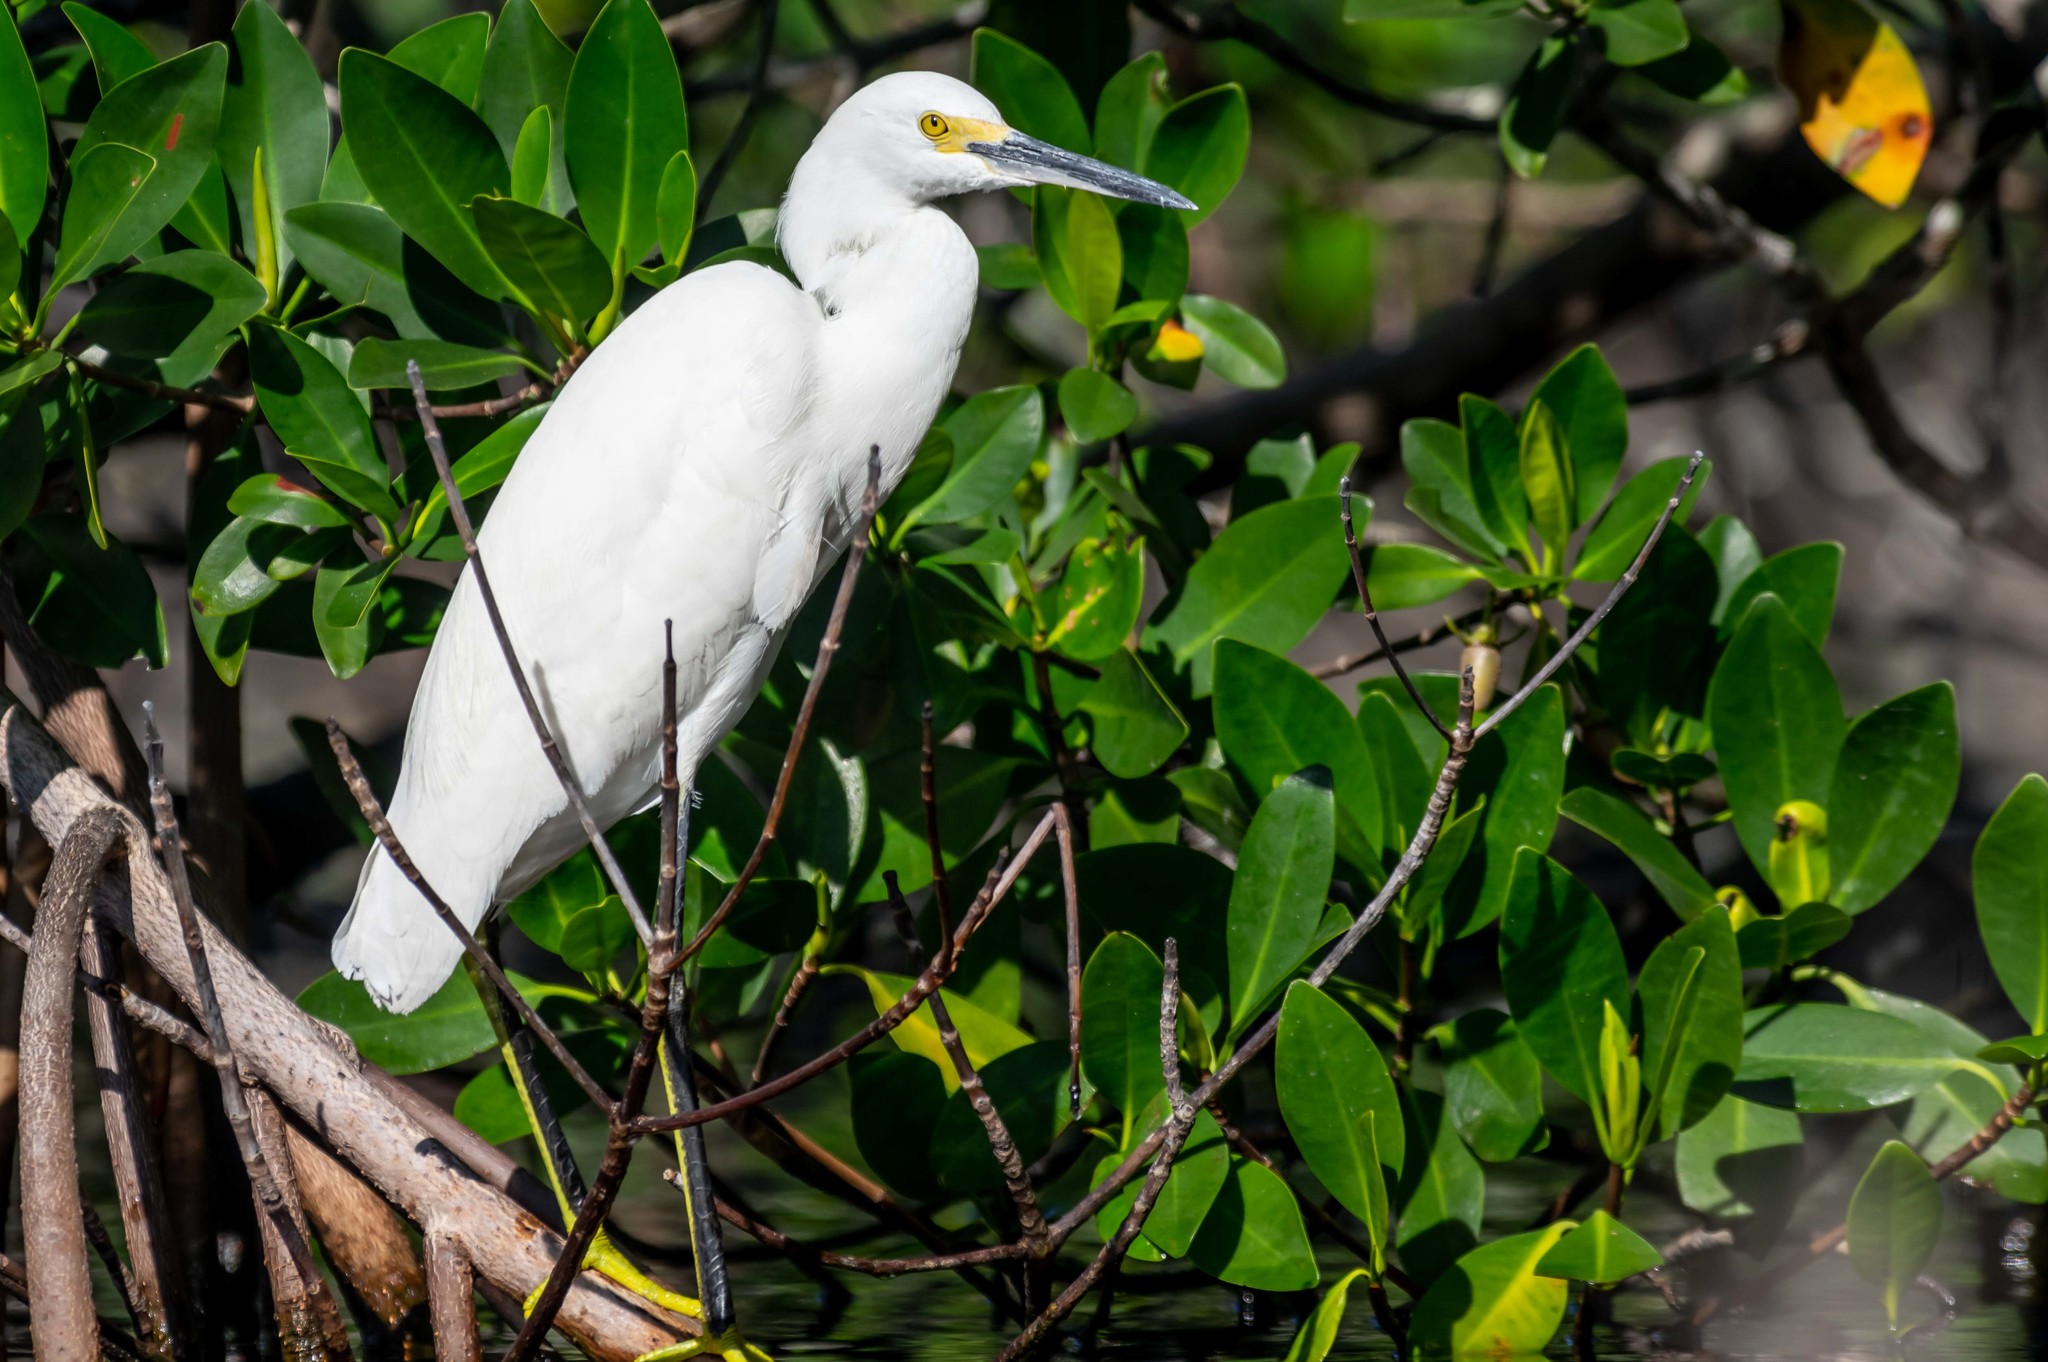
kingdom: Animalia
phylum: Chordata
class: Aves
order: Pelecaniformes
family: Ardeidae
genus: Egretta
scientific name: Egretta thula
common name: Snowy egret
